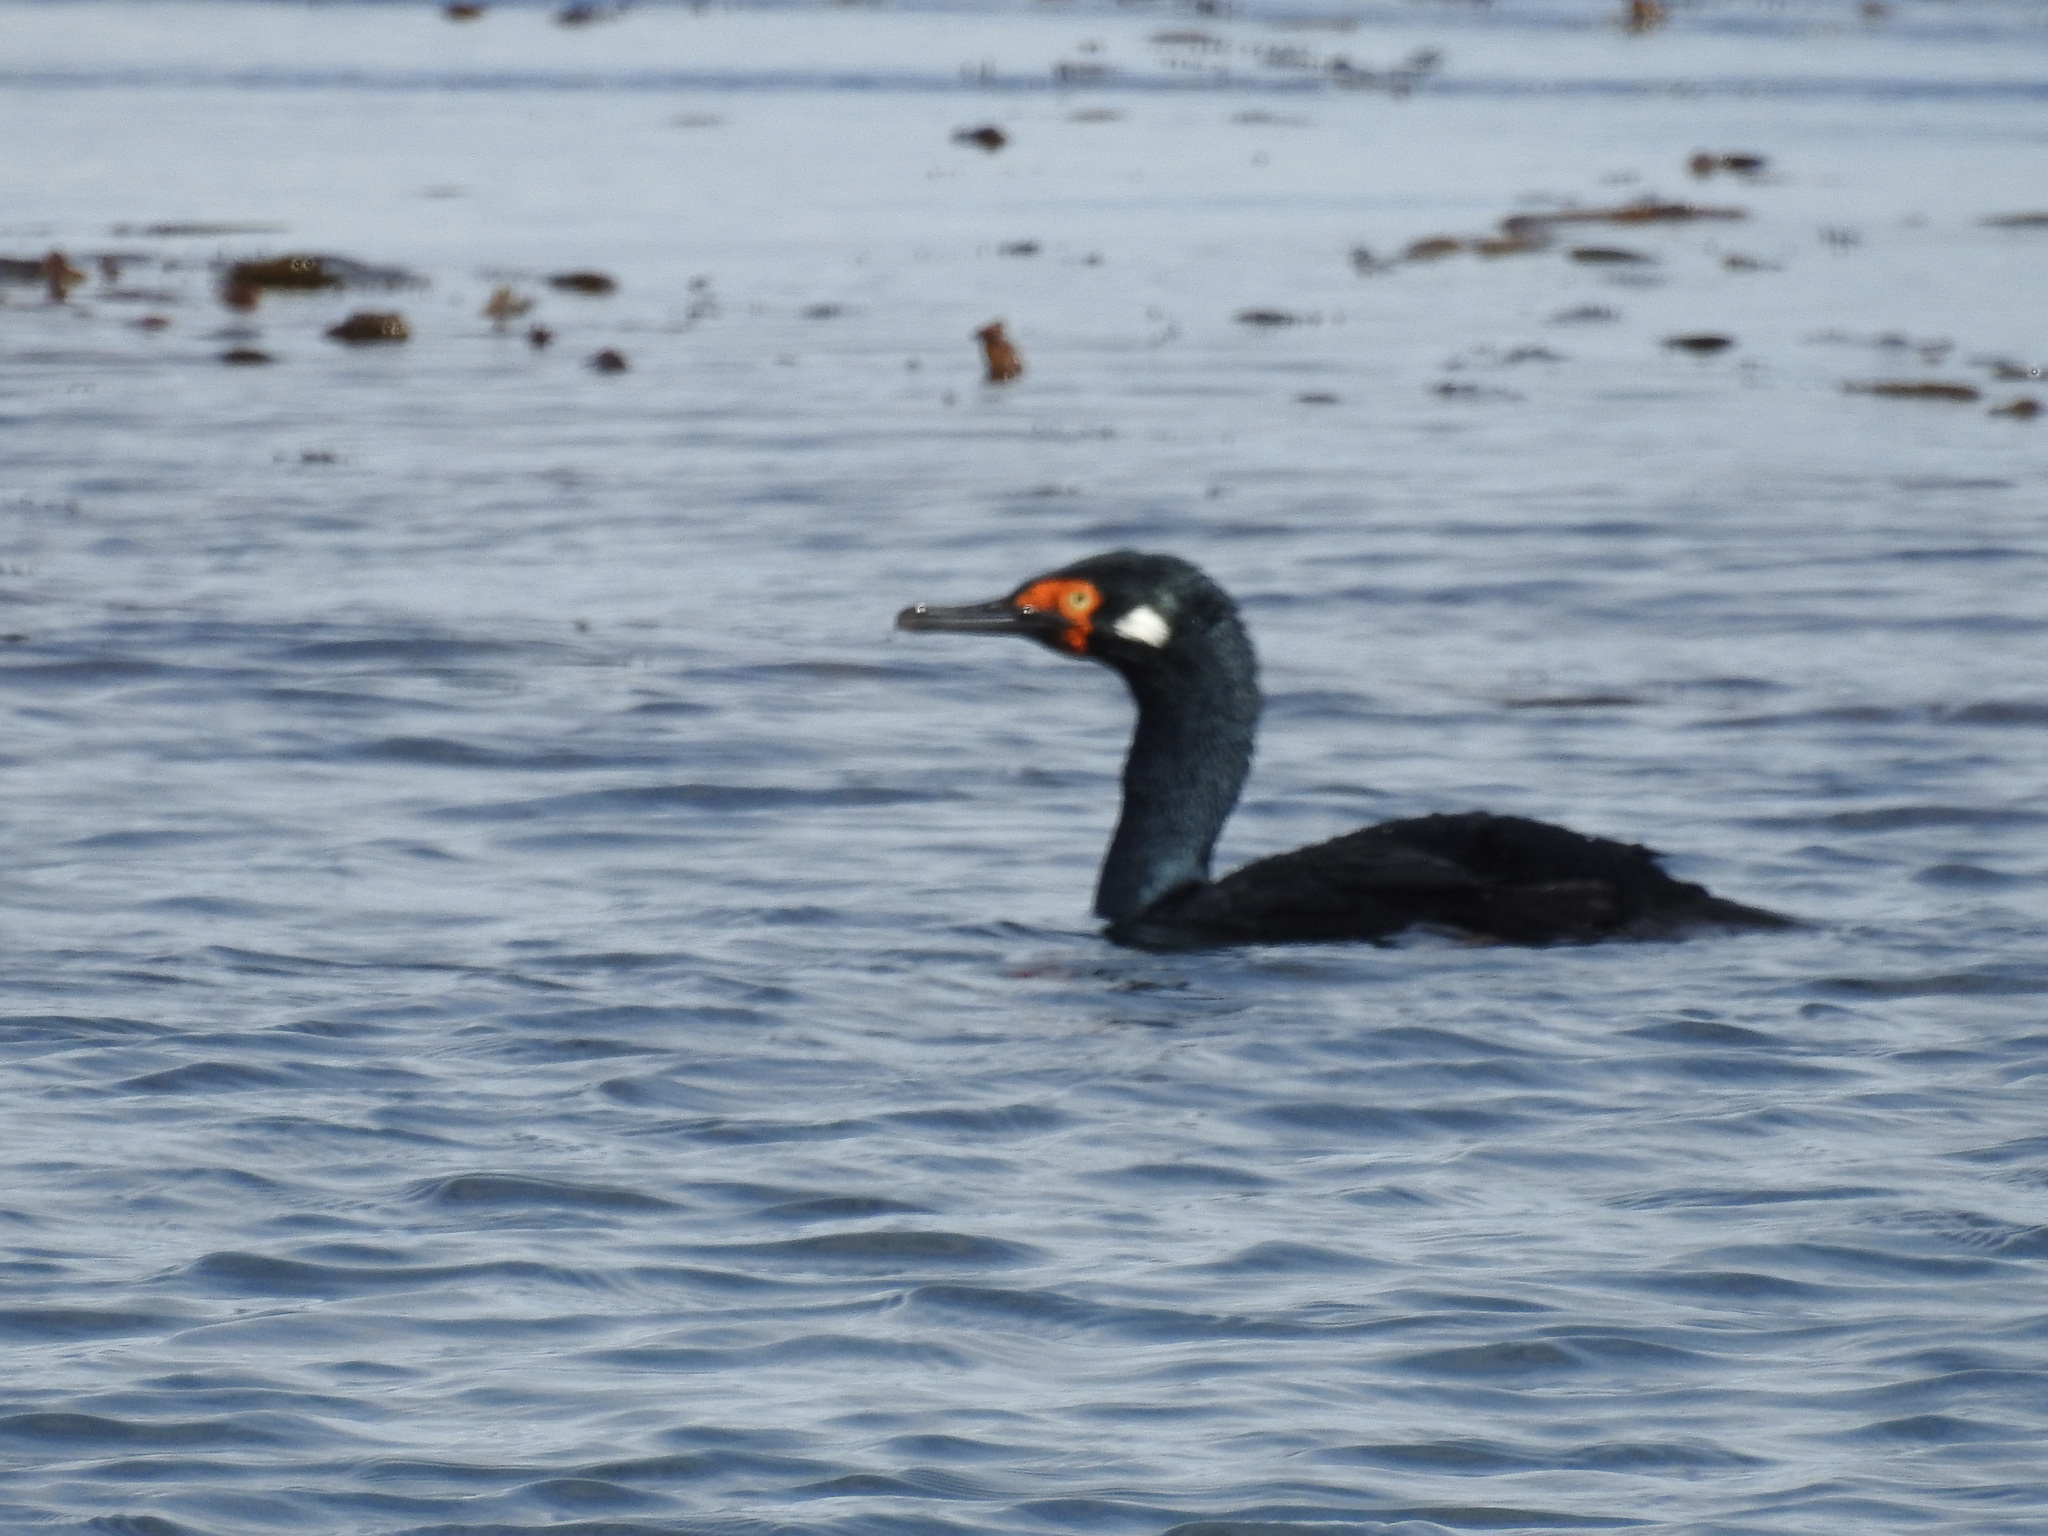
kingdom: Animalia
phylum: Chordata
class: Aves
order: Suliformes
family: Phalacrocoracidae
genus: Phalacrocorax
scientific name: Phalacrocorax magellanicus
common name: Rock shag
